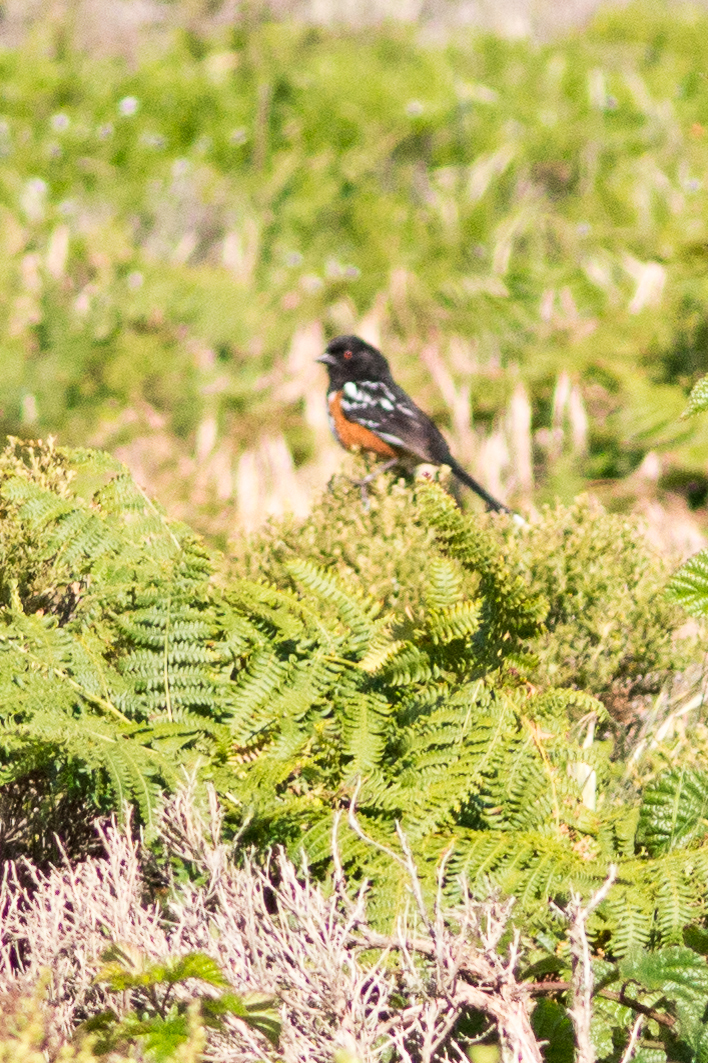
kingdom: Animalia
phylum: Chordata
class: Aves
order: Passeriformes
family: Passerellidae
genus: Pipilo
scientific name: Pipilo maculatus
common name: Spotted towhee
